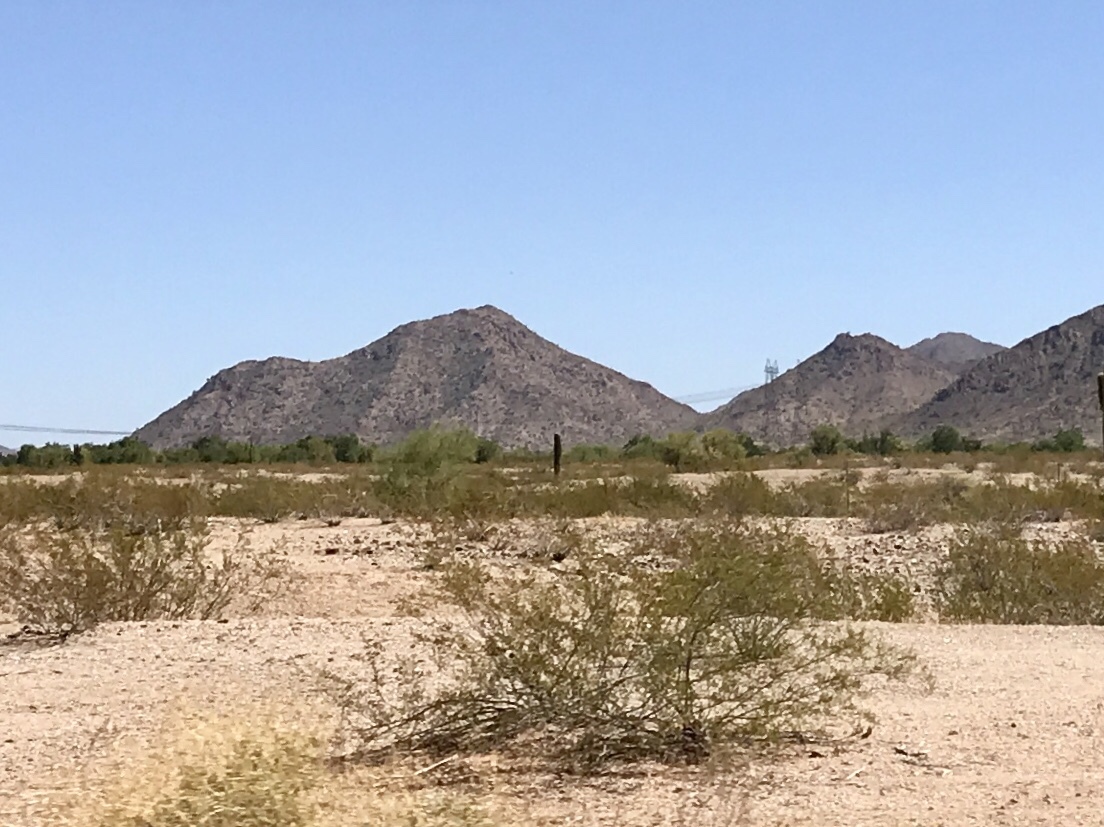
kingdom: Plantae
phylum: Tracheophyta
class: Magnoliopsida
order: Zygophyllales
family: Zygophyllaceae
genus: Larrea
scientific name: Larrea tridentata
